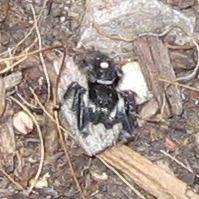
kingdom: Animalia
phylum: Arthropoda
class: Arachnida
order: Araneae
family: Salticidae
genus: Phidippus
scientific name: Phidippus audax
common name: Bold jumper
